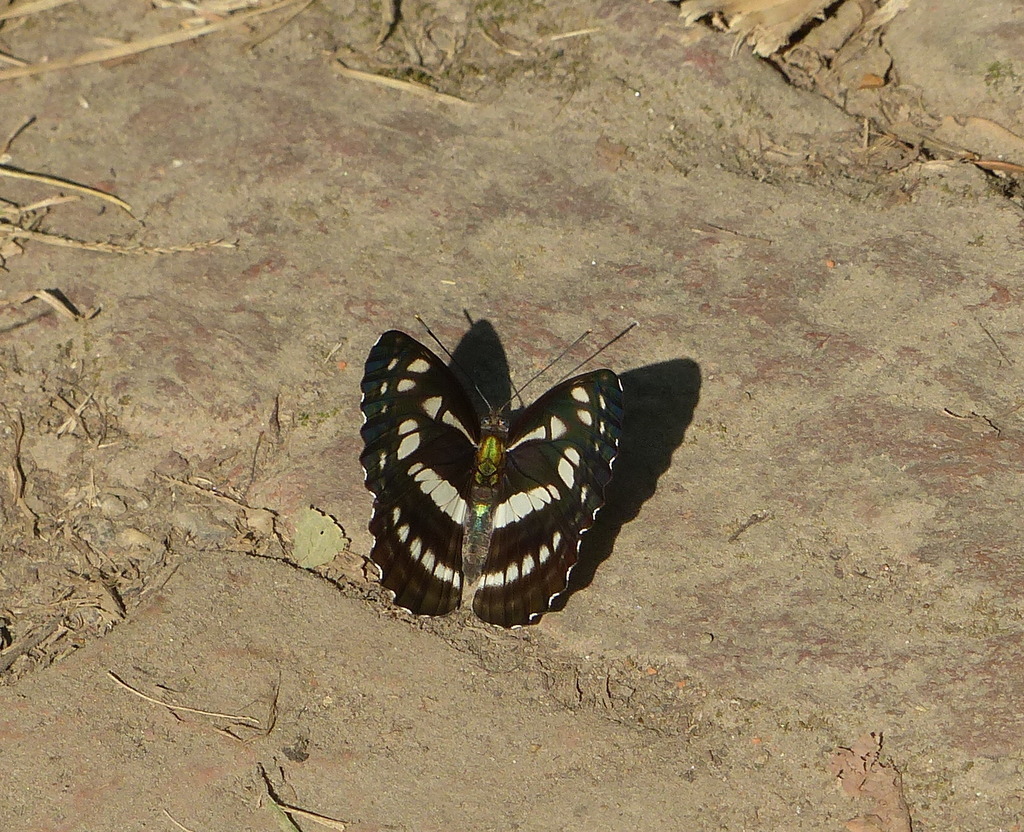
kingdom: Animalia
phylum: Arthropoda
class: Insecta
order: Lepidoptera
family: Nymphalidae
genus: Phaedyma
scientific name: Phaedyma columella
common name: Short banded sailer
